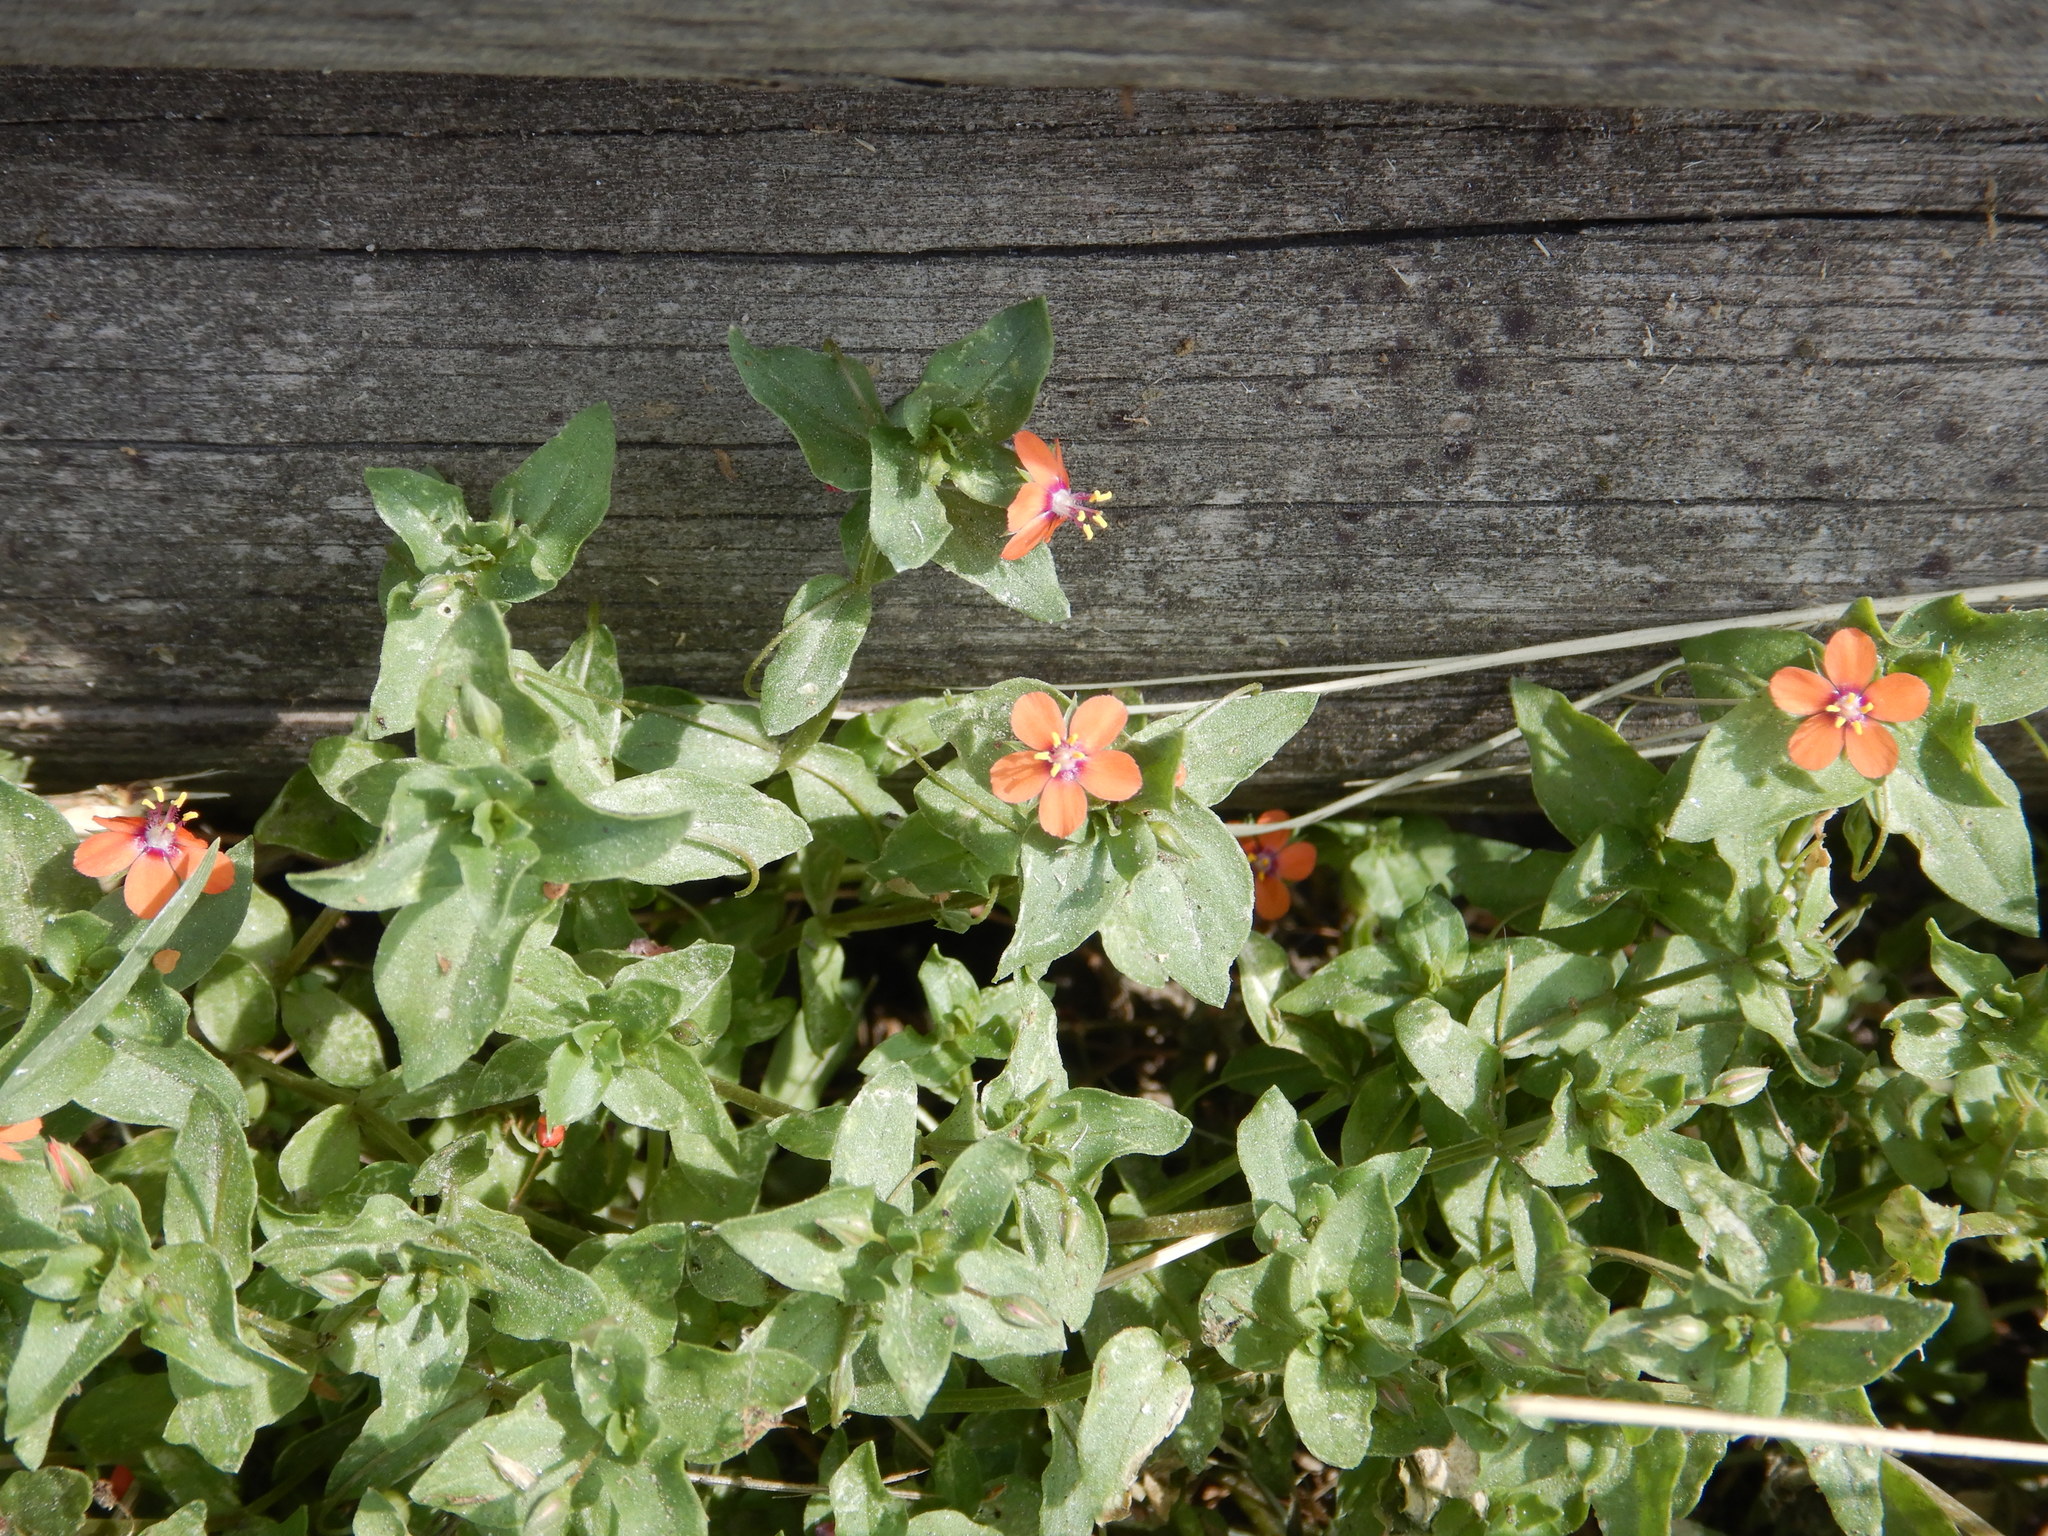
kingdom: Plantae
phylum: Tracheophyta
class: Magnoliopsida
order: Ericales
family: Primulaceae
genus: Lysimachia
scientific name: Lysimachia arvensis
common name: Scarlet pimpernel
